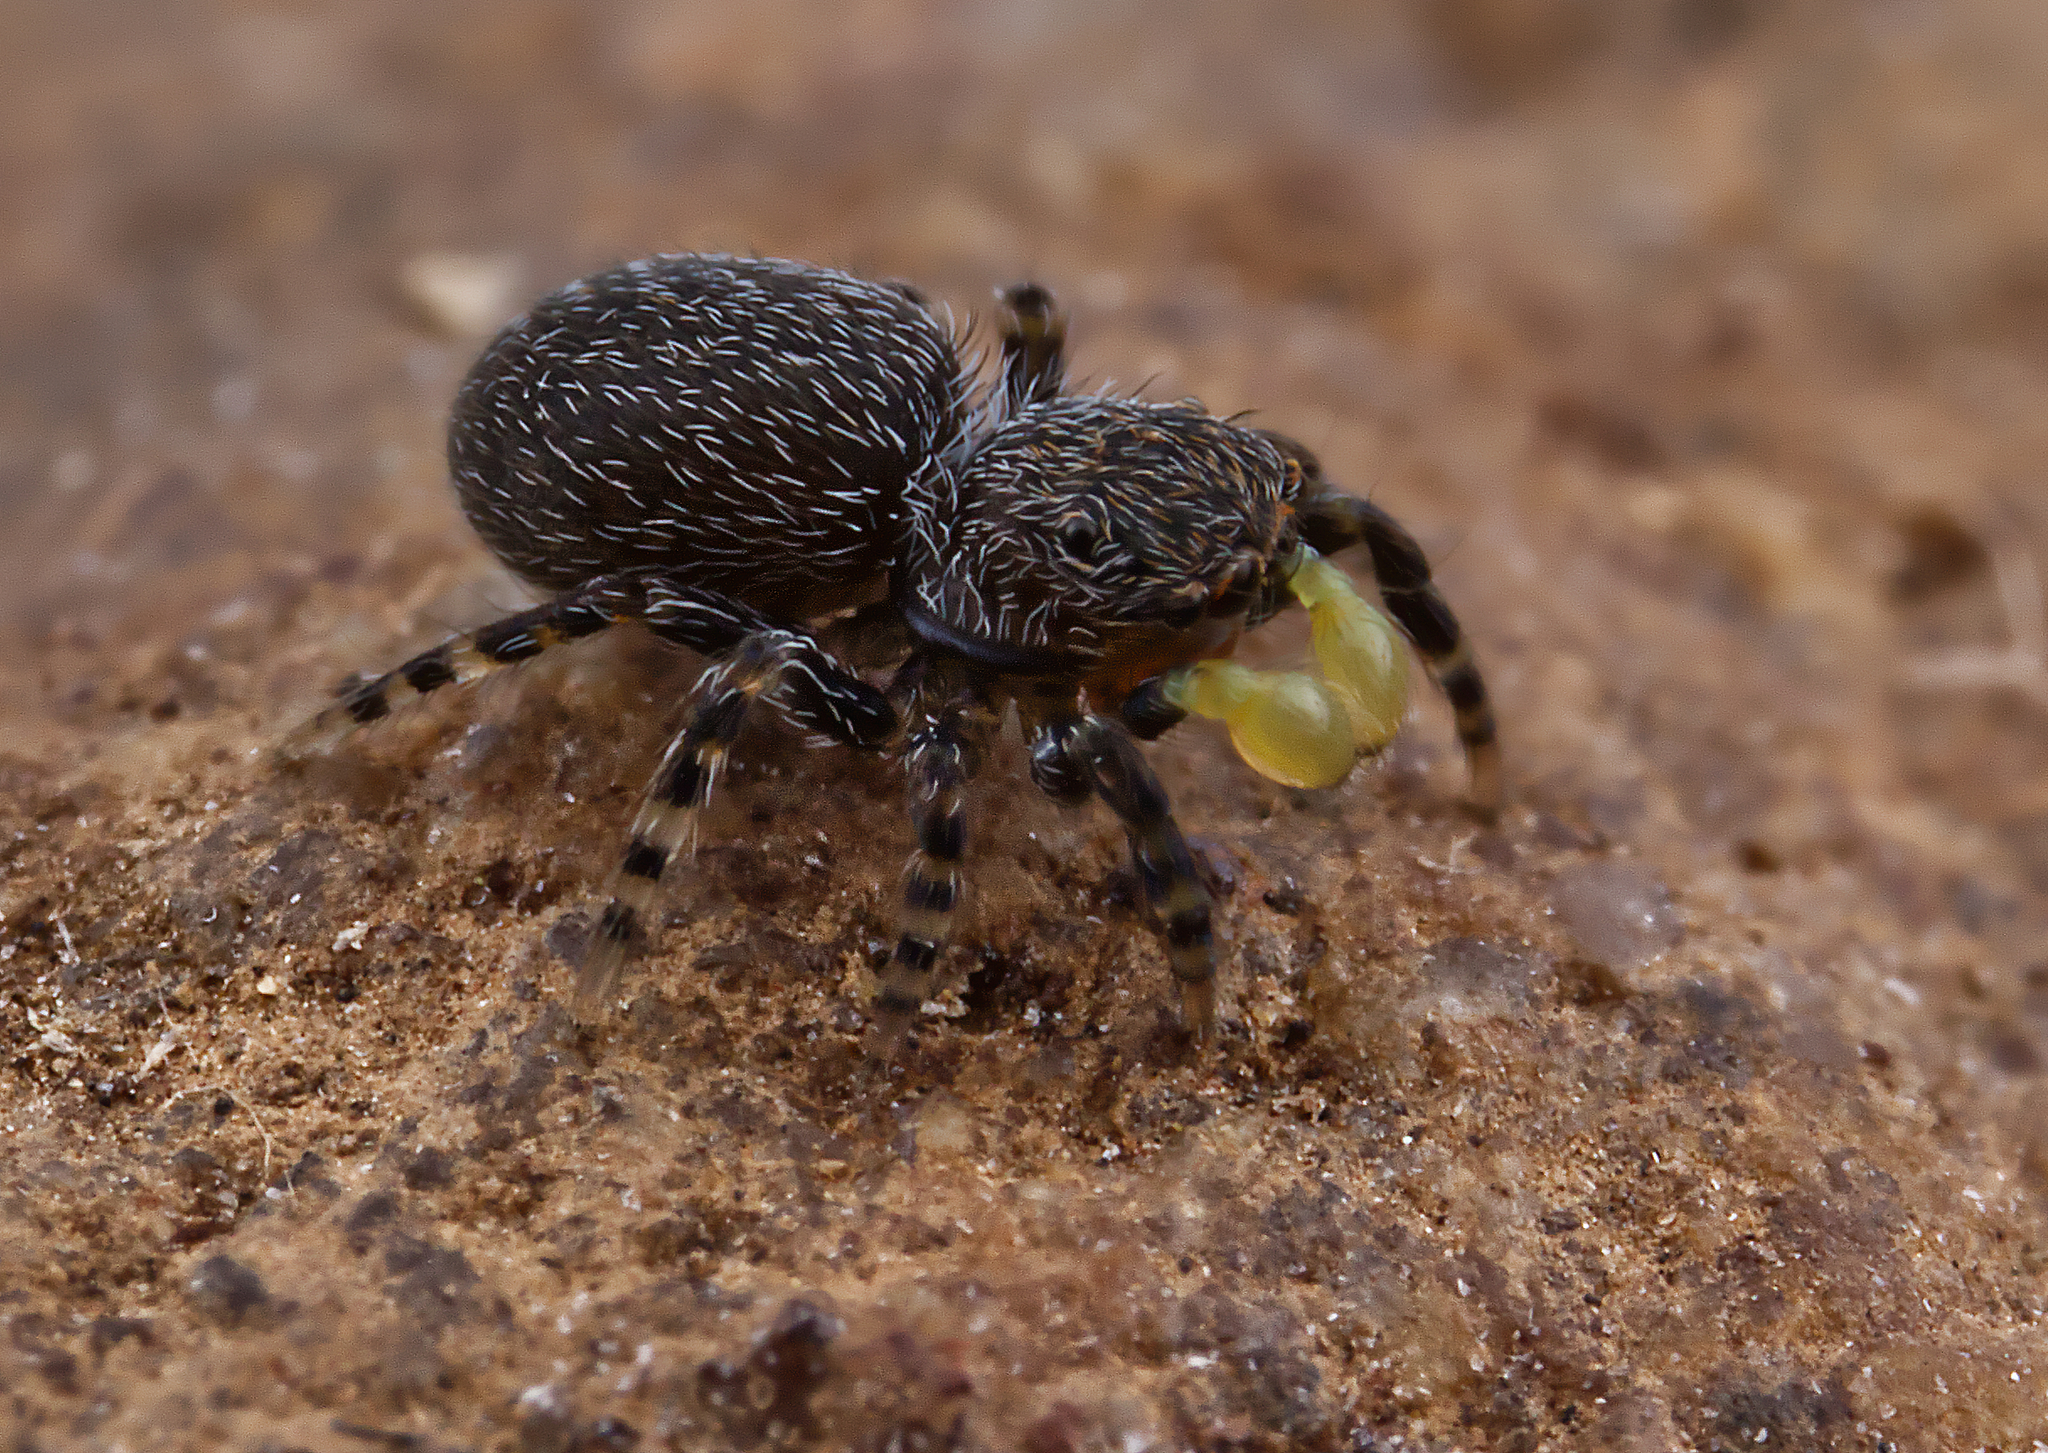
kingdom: Animalia
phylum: Arthropoda
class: Arachnida
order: Araneae
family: Salticidae
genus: Talavera
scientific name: Talavera minuta
